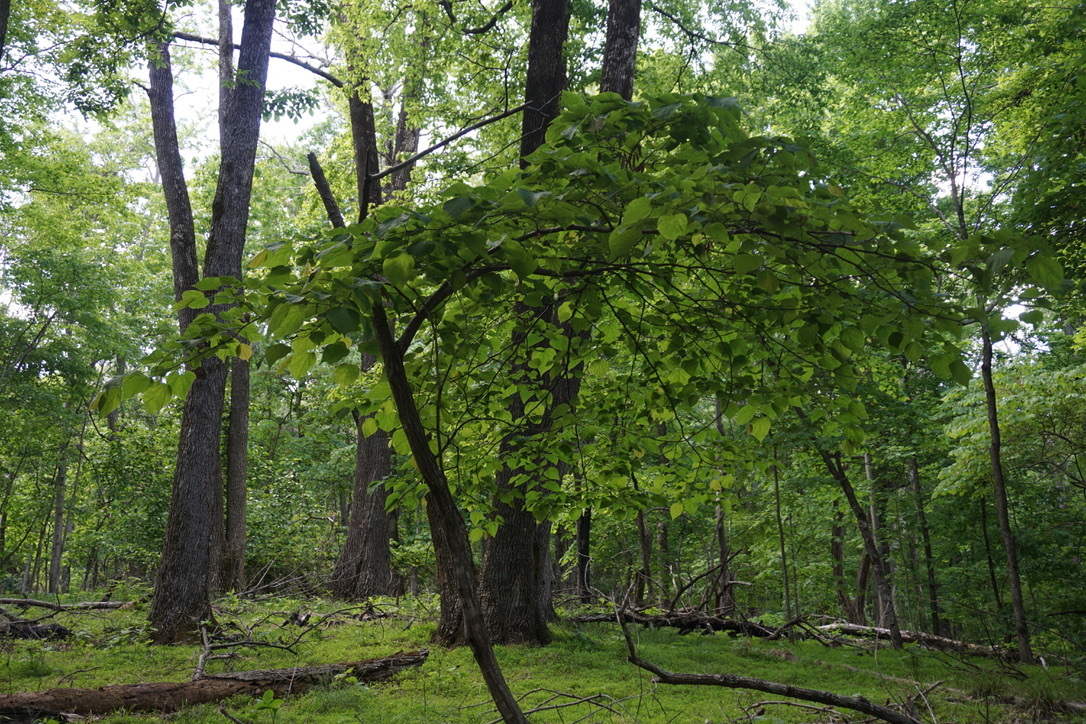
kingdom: Plantae
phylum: Tracheophyta
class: Magnoliopsida
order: Fabales
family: Fabaceae
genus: Cercis
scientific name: Cercis canadensis
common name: Eastern redbud
